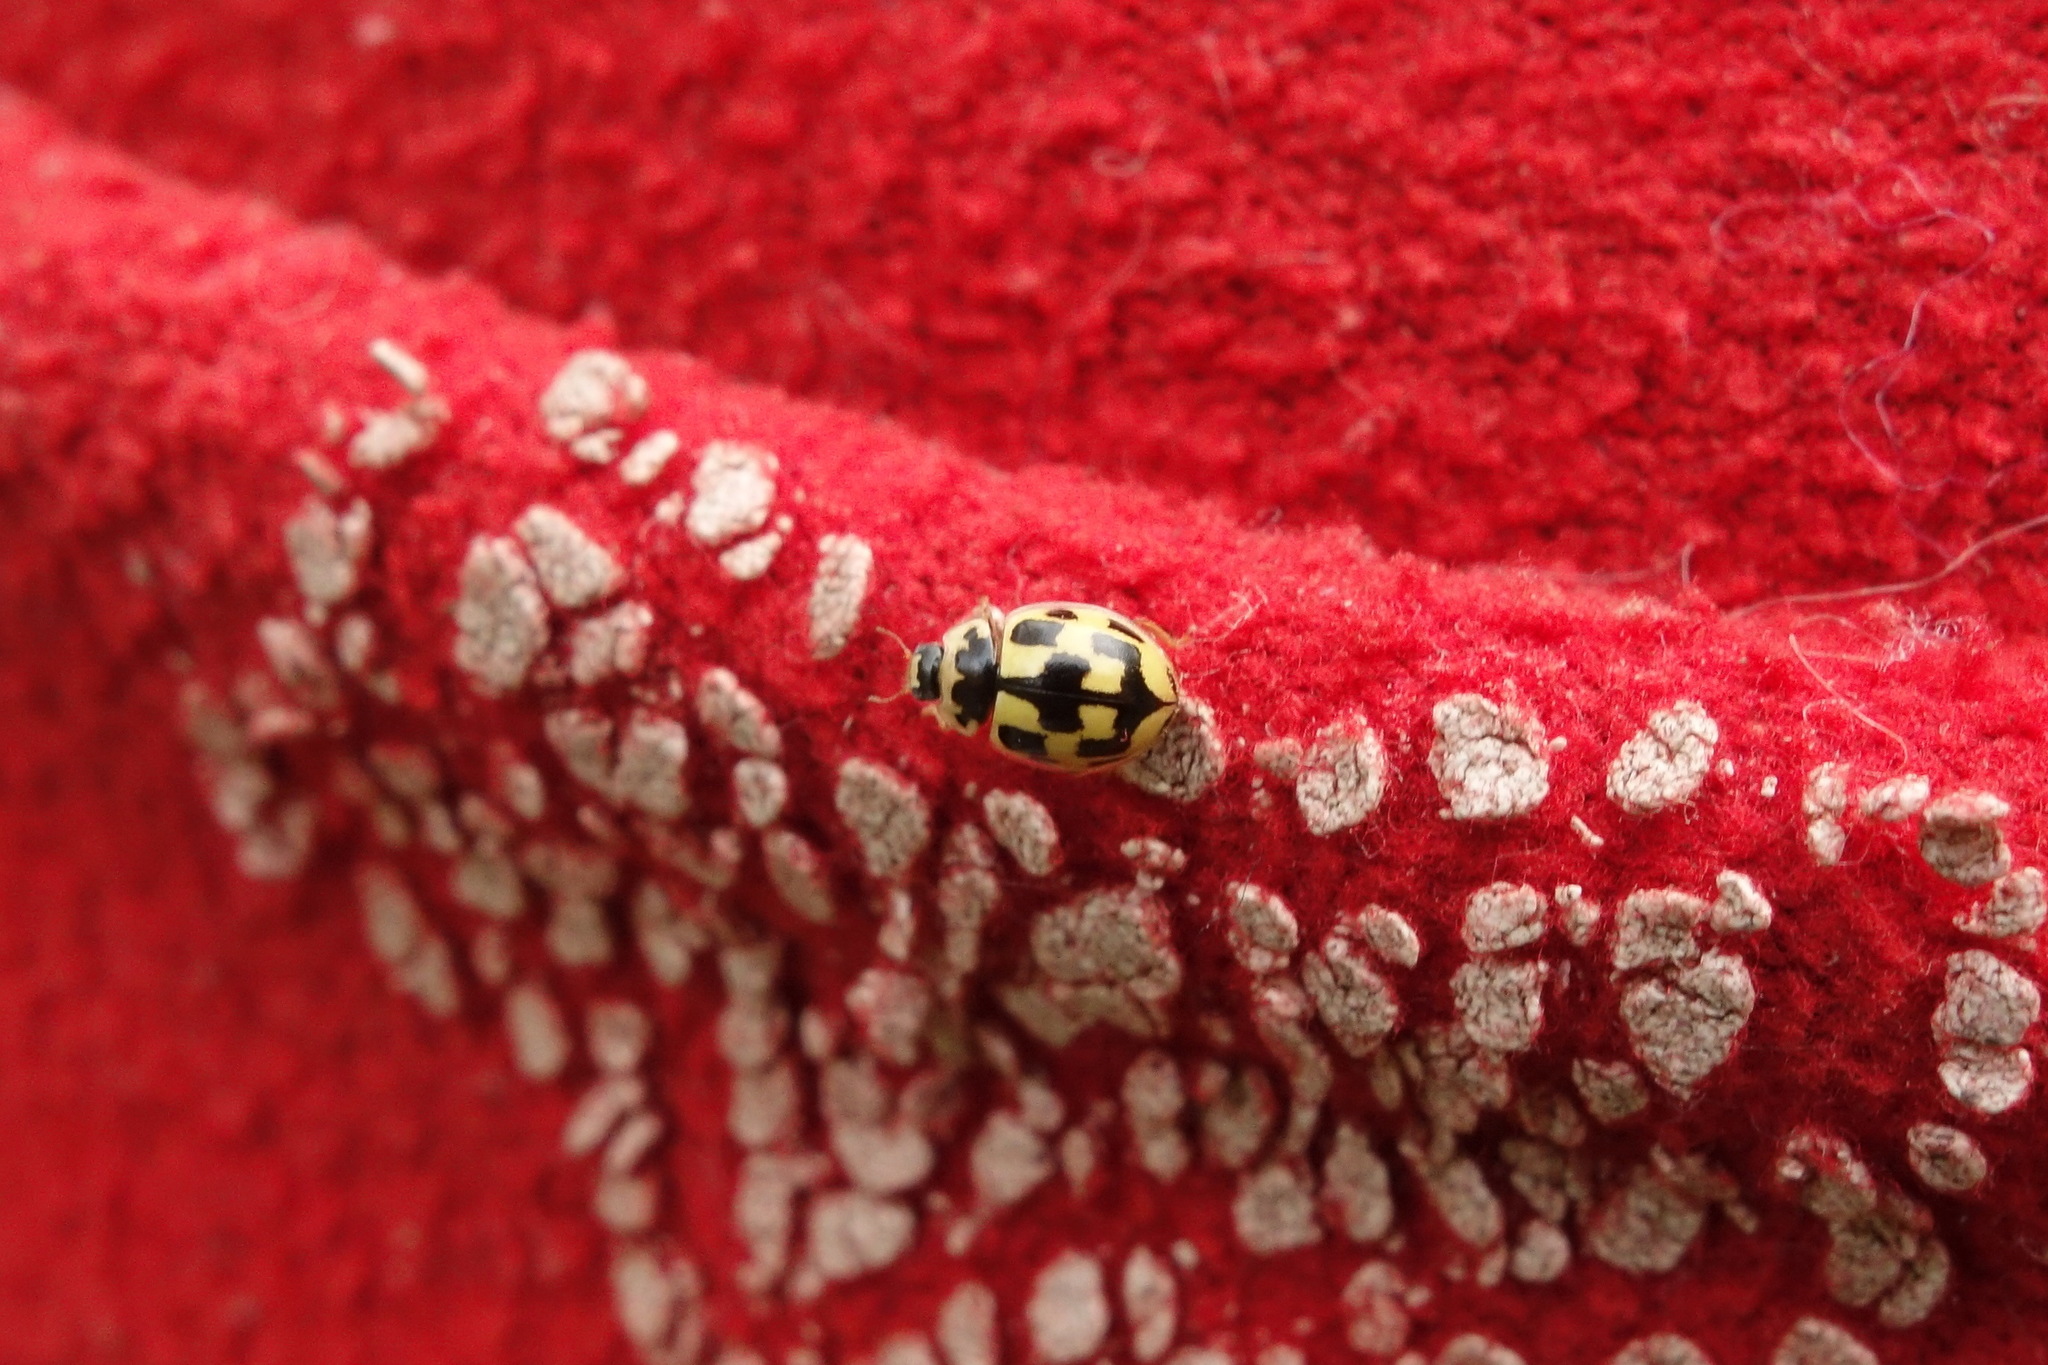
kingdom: Animalia
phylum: Arthropoda
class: Insecta
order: Coleoptera
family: Coccinellidae
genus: Propylaea
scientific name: Propylaea quatuordecimpunctata
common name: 14-spotted ladybird beetle
